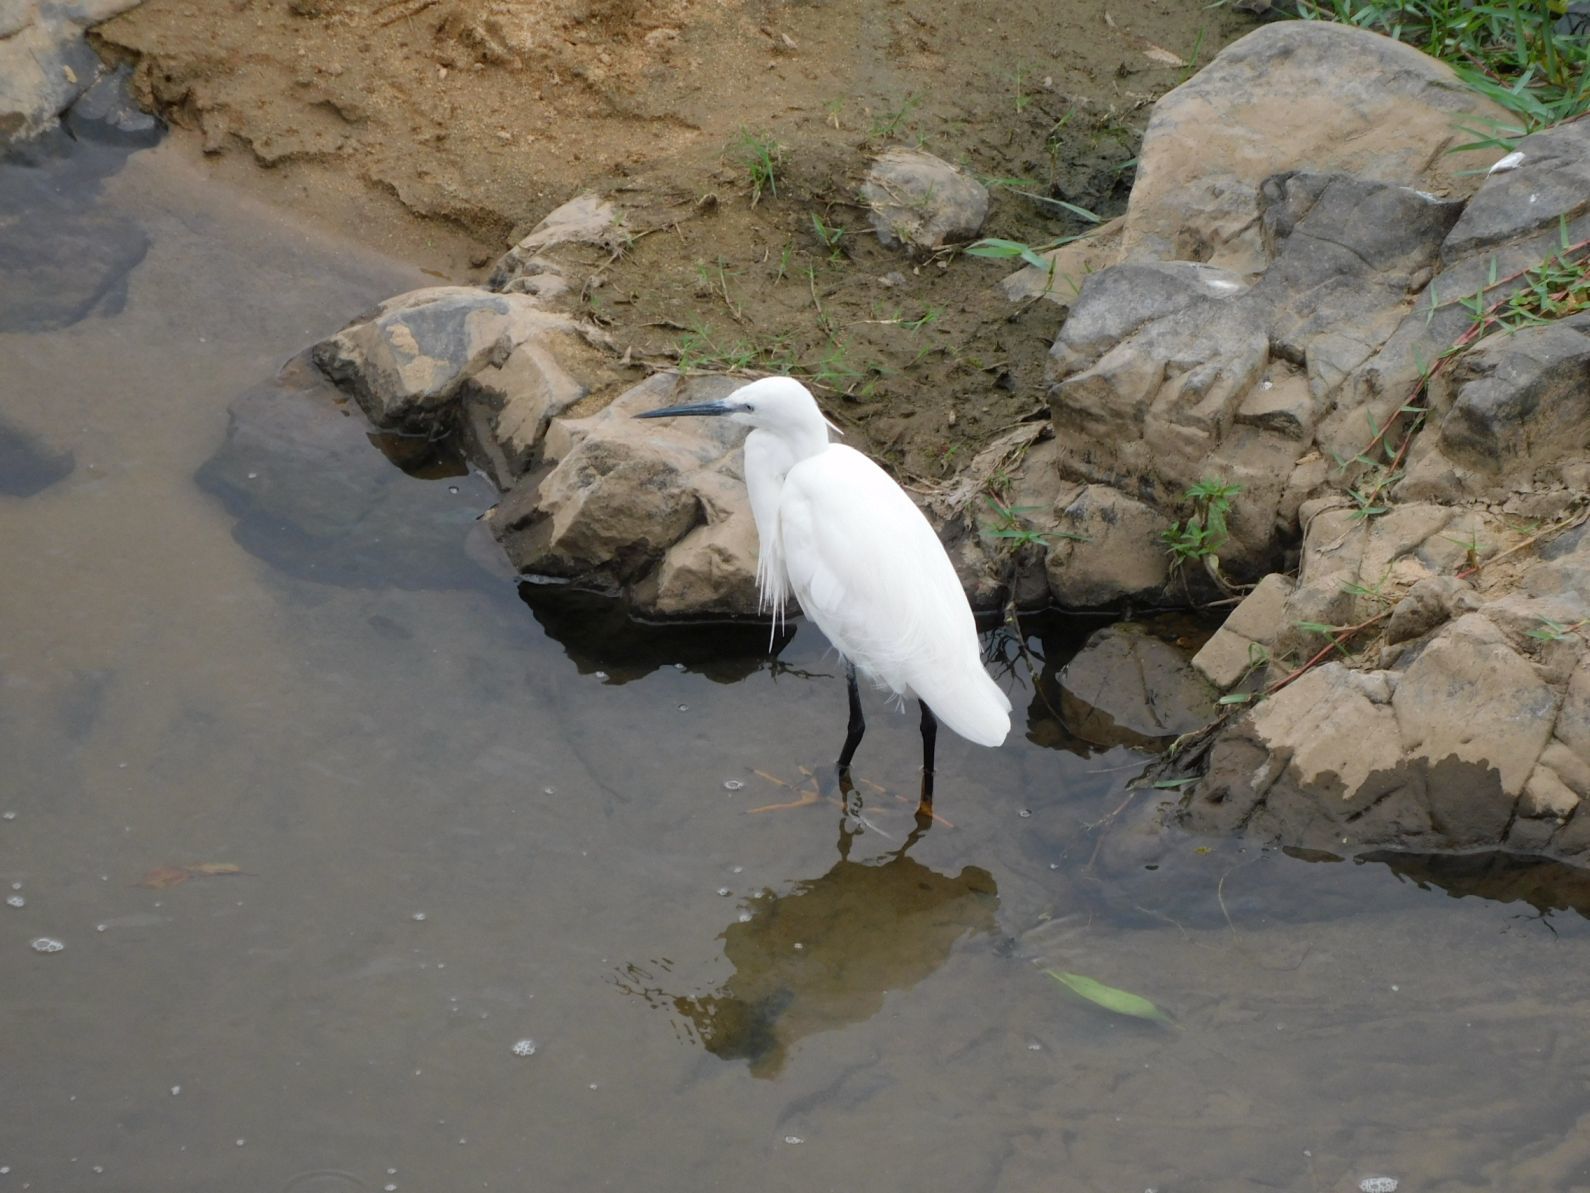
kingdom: Animalia
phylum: Chordata
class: Aves
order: Pelecaniformes
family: Ardeidae
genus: Egretta
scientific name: Egretta garzetta
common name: Little egret
